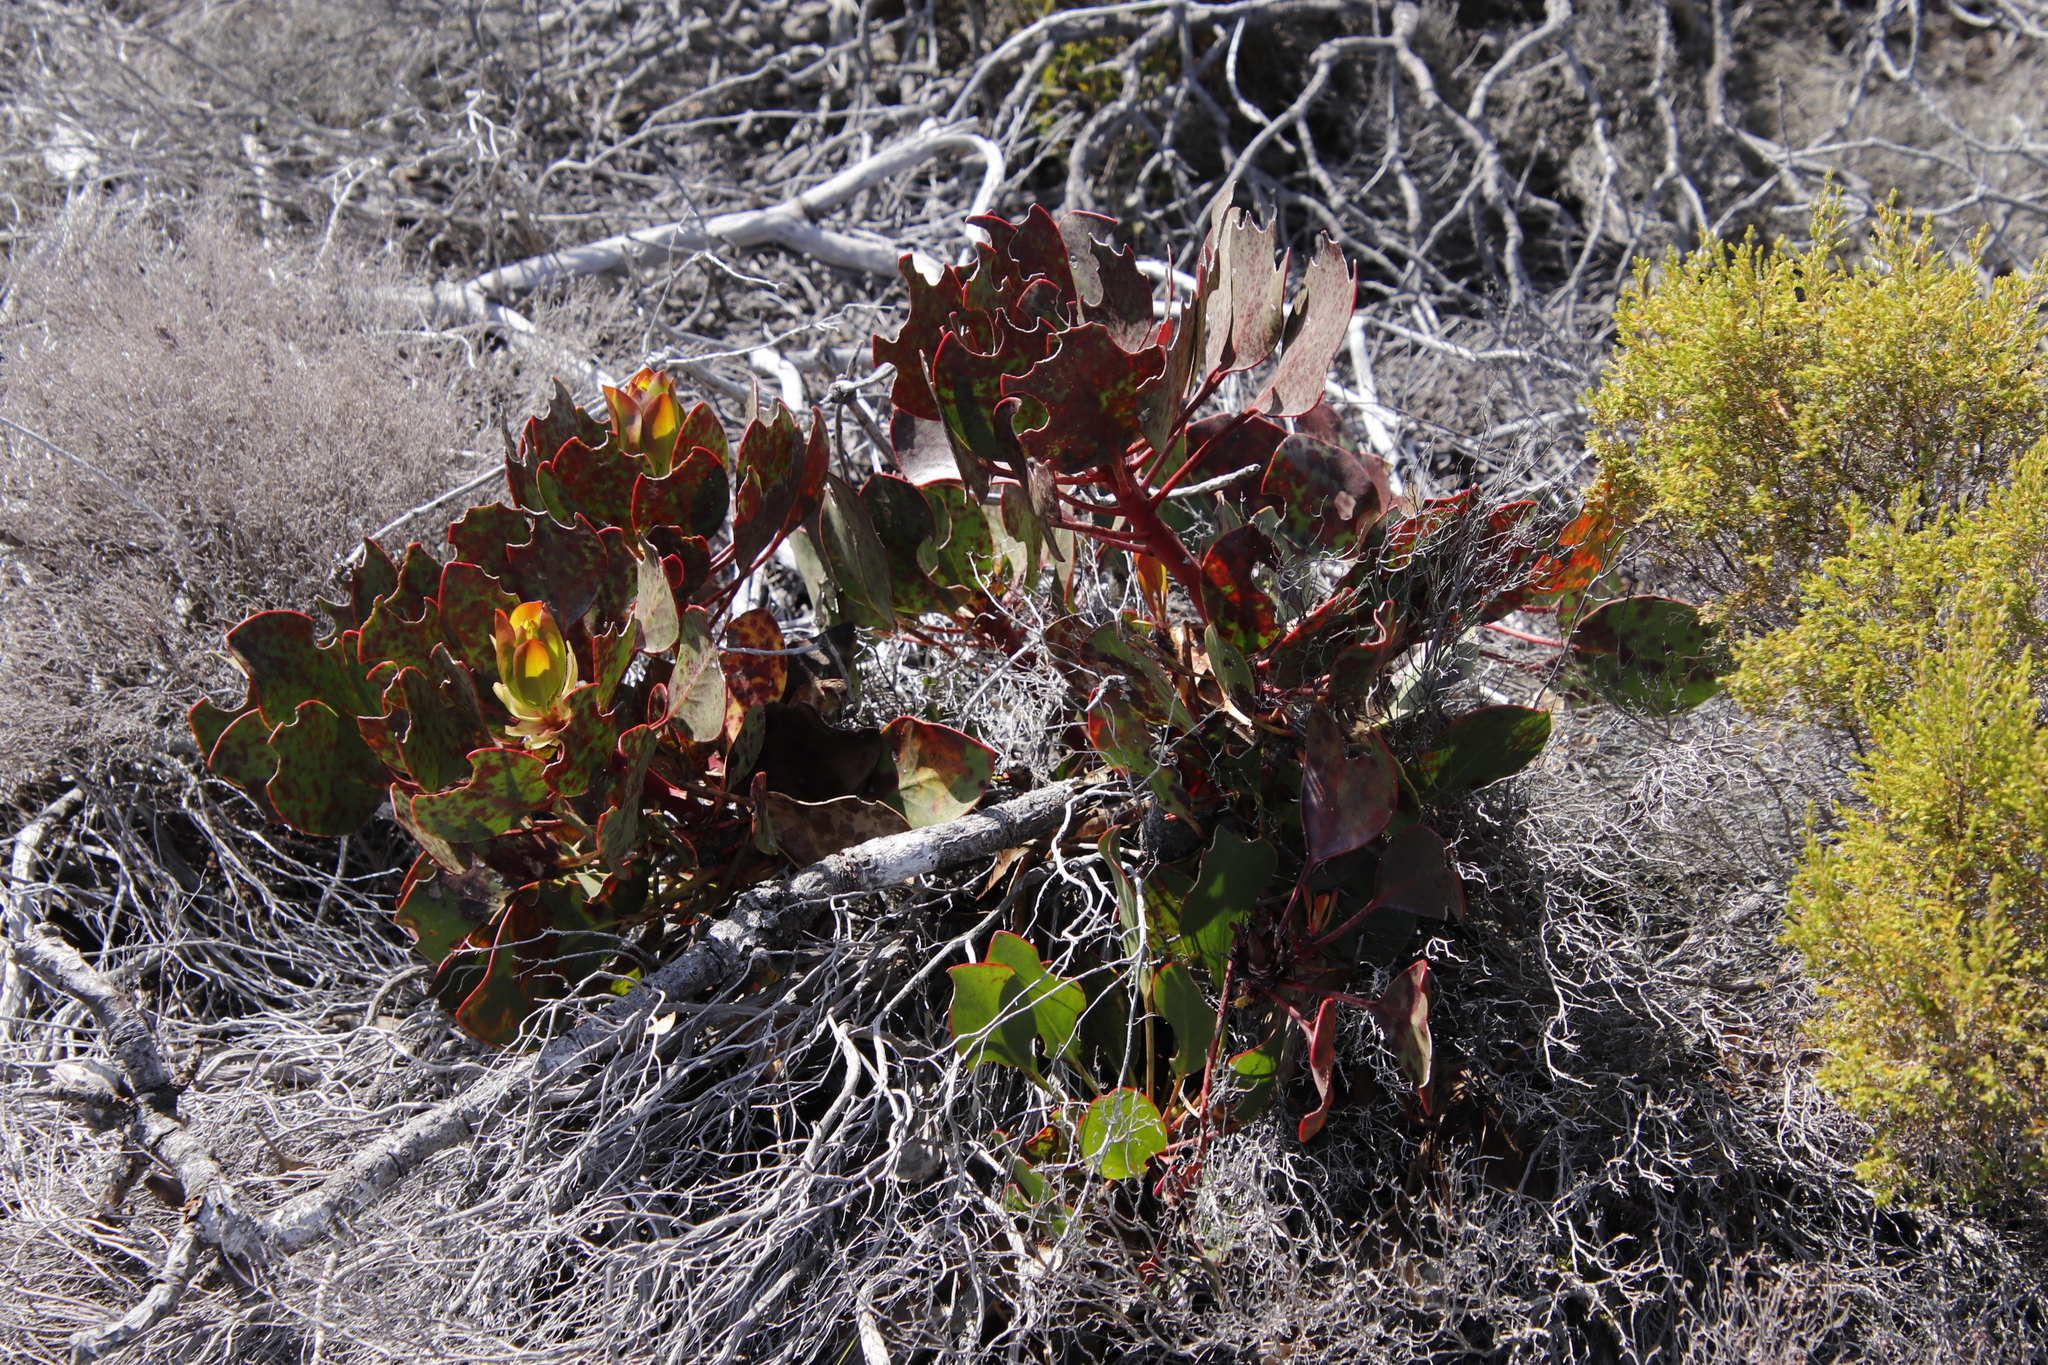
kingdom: Plantae
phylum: Tracheophyta
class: Magnoliopsida
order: Proteales
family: Proteaceae
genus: Protea
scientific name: Protea cynaroides
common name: King protea
